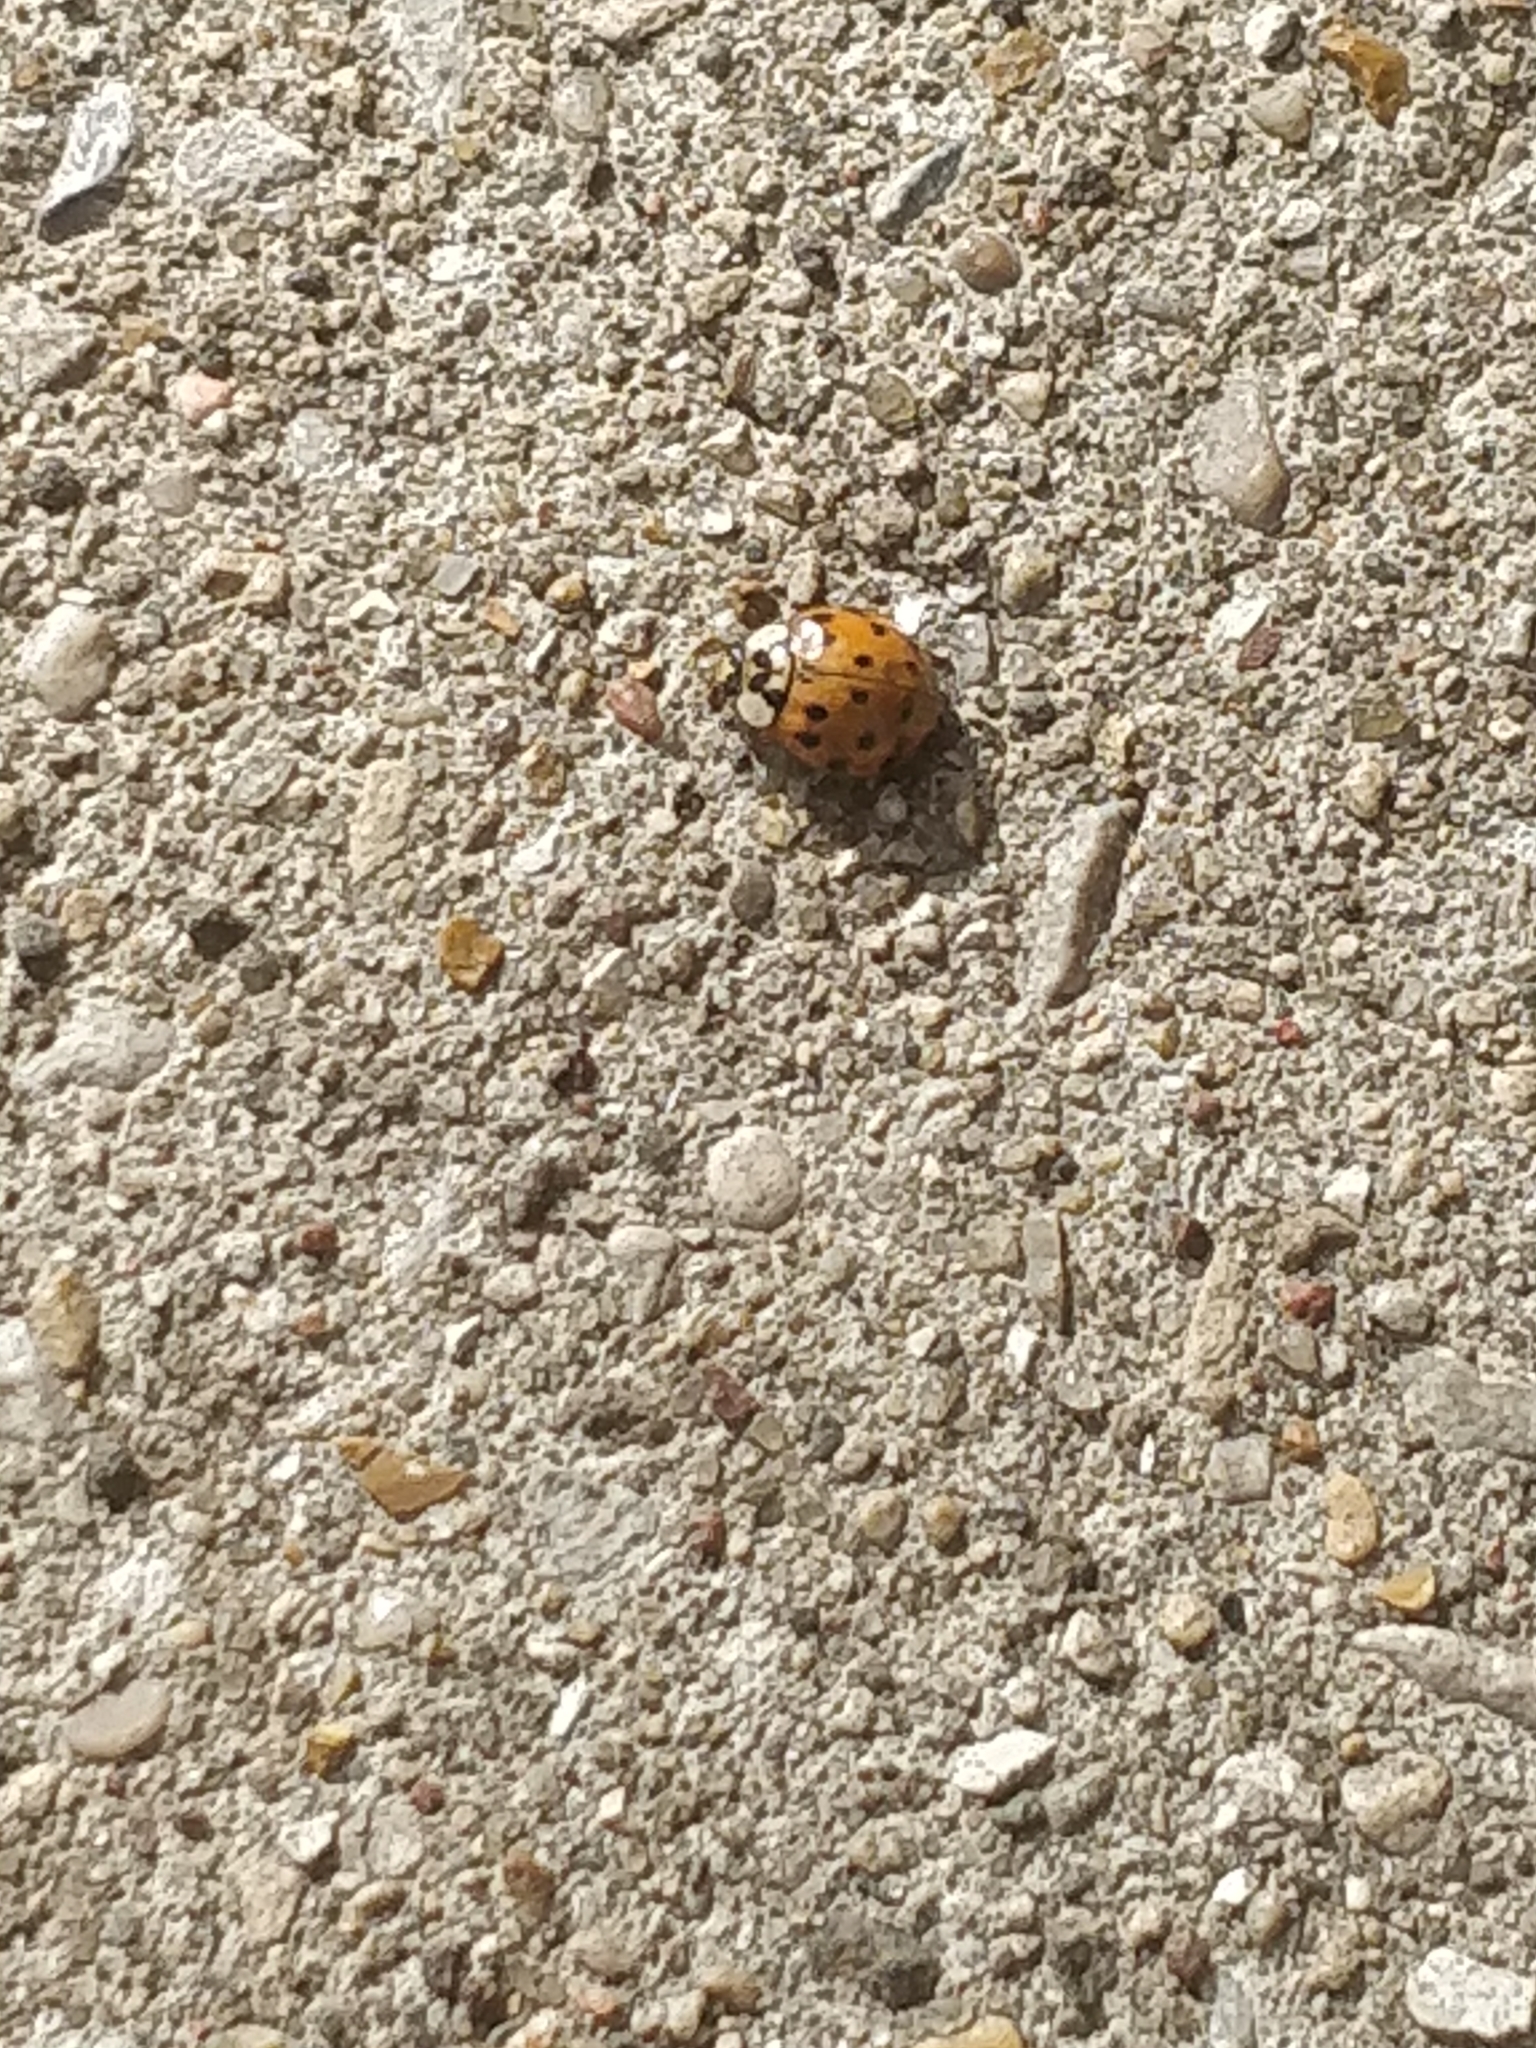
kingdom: Animalia
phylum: Arthropoda
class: Insecta
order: Coleoptera
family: Coccinellidae
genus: Harmonia
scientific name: Harmonia axyridis
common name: Harlequin ladybird
